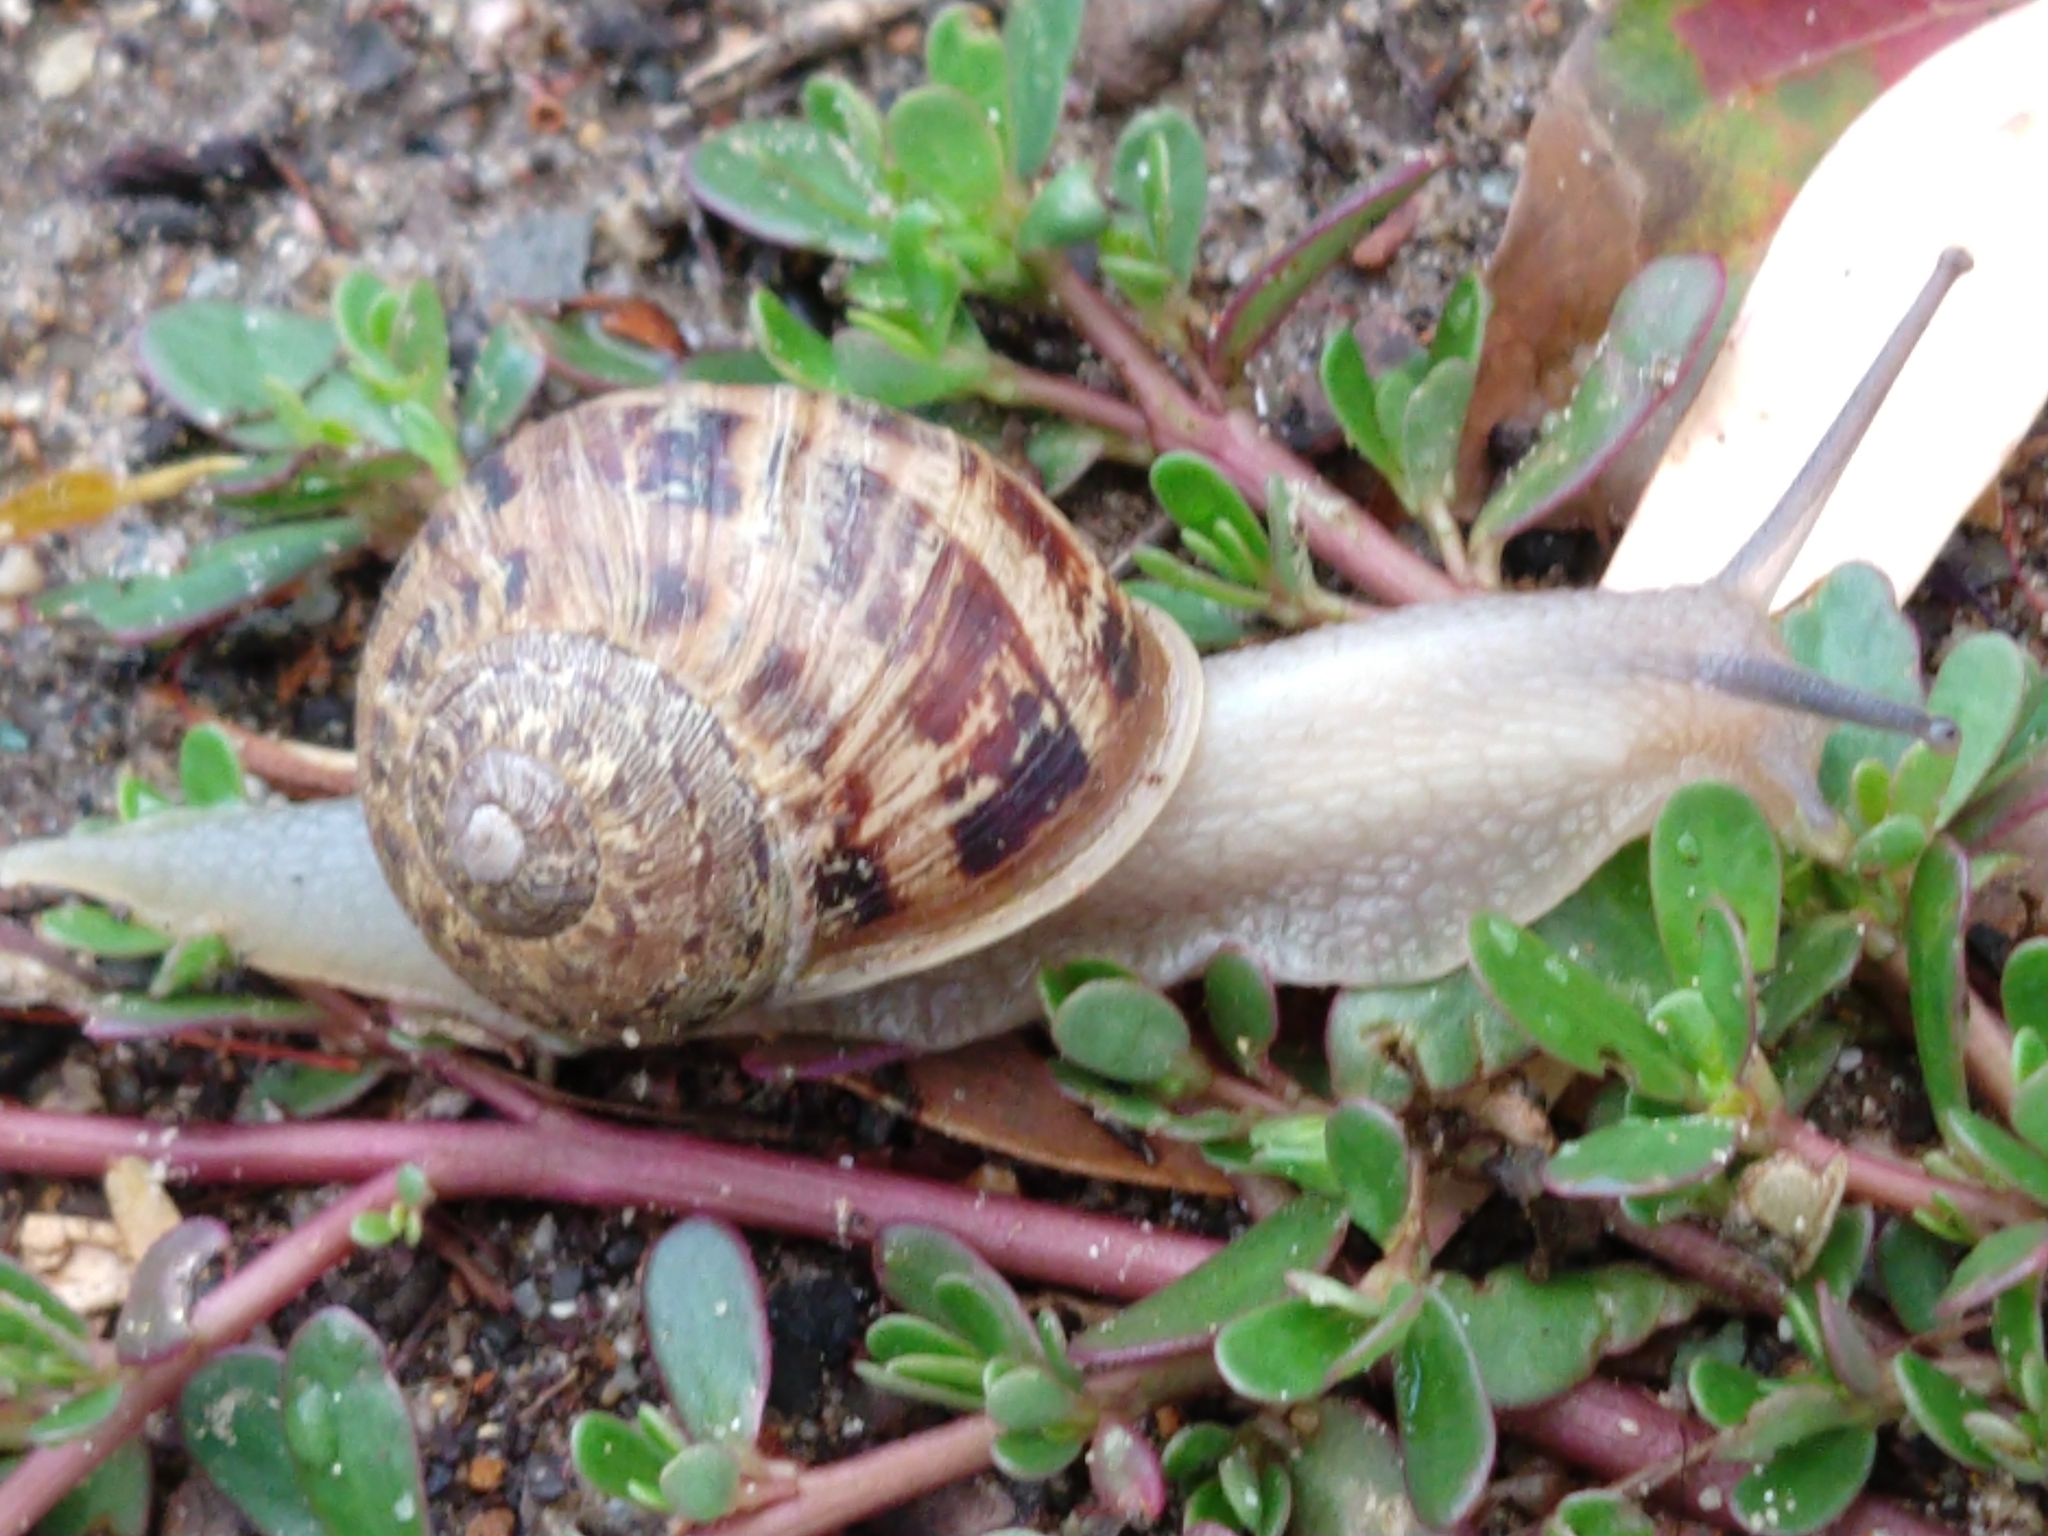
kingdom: Animalia
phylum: Mollusca
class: Gastropoda
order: Stylommatophora
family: Helicidae
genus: Cornu
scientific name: Cornu aspersum
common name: Brown garden snail
